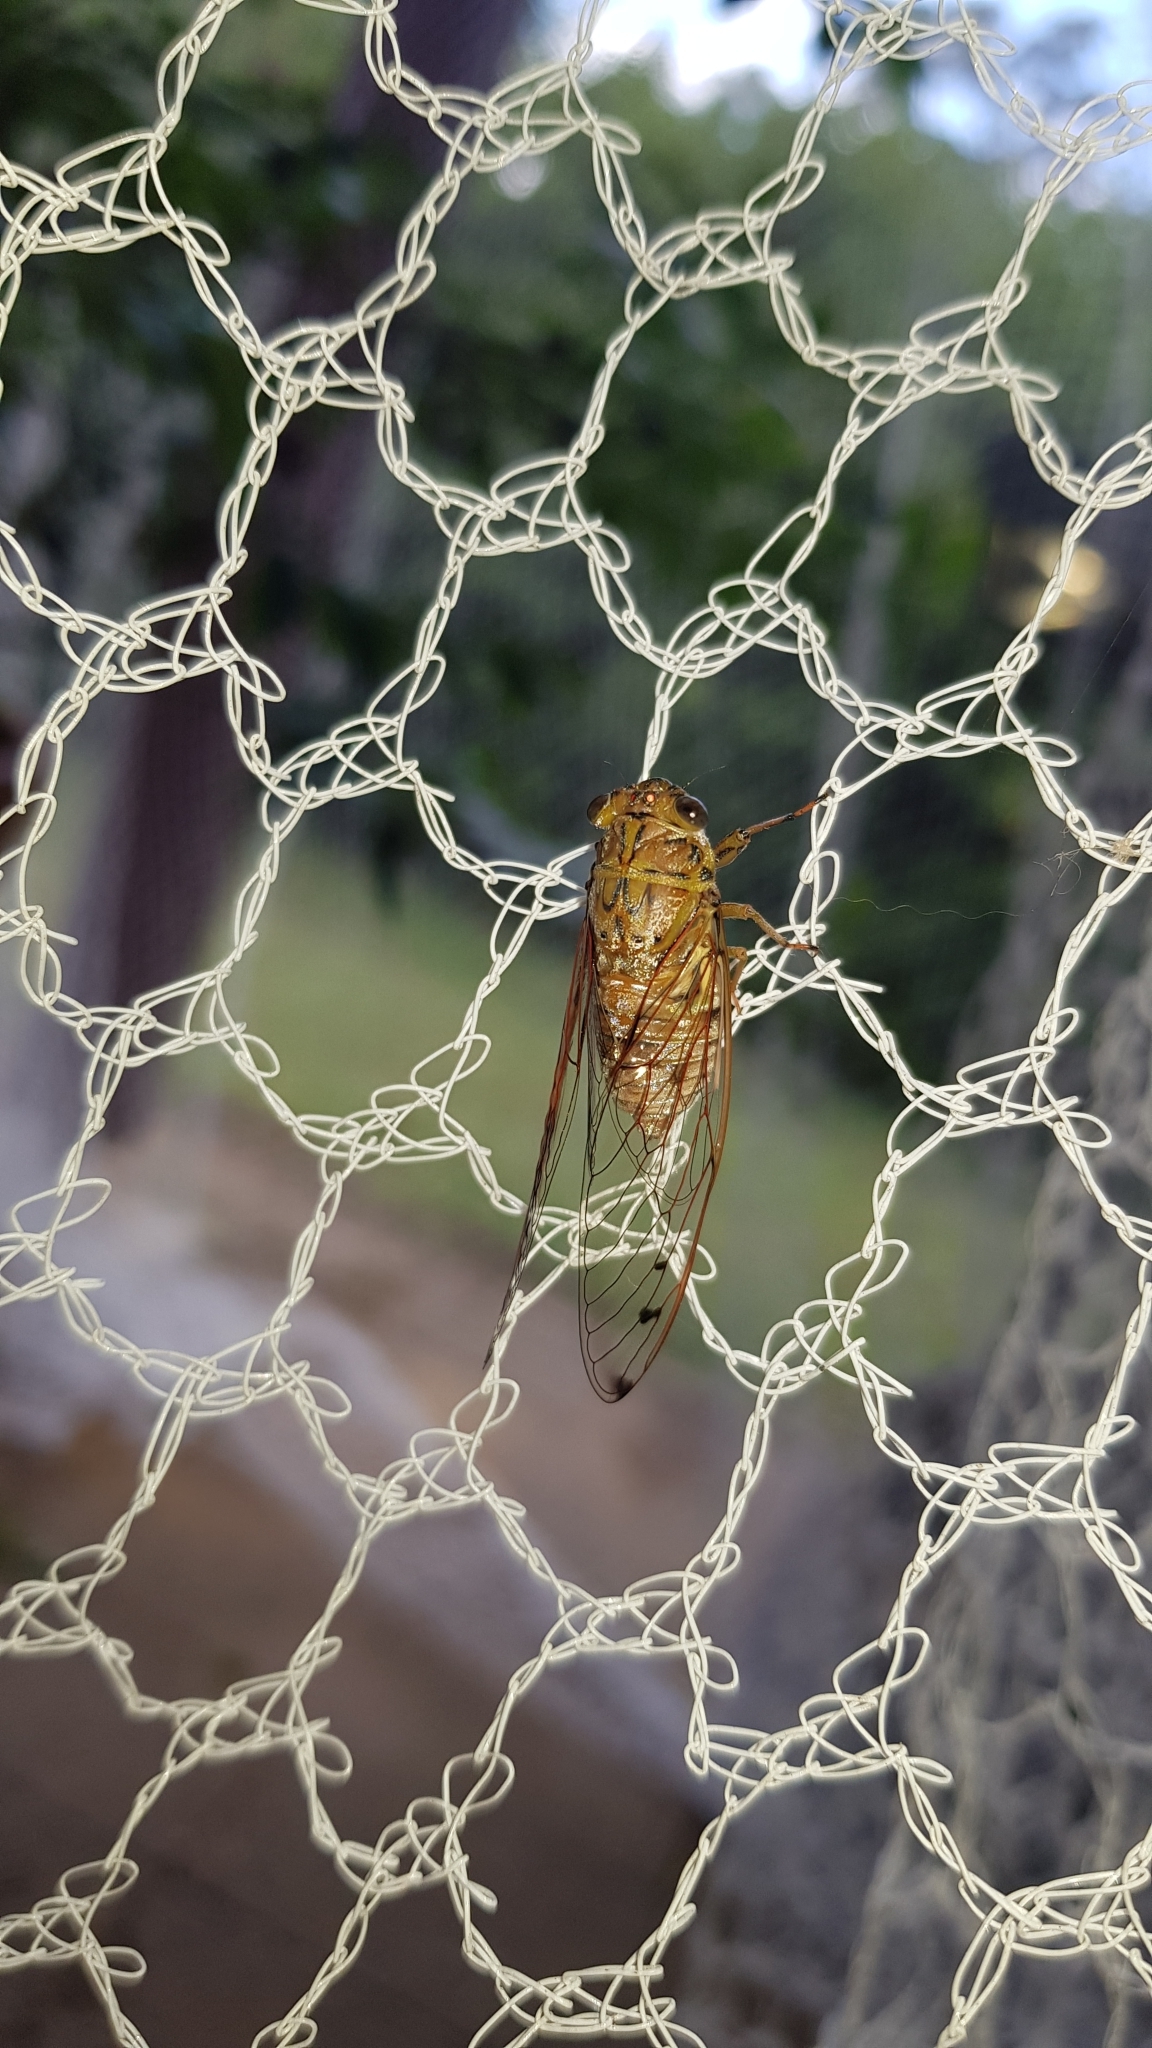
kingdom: Animalia
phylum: Arthropoda
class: Insecta
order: Hemiptera
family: Cicadidae
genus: Tamasa
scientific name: Tamasa tristigma
